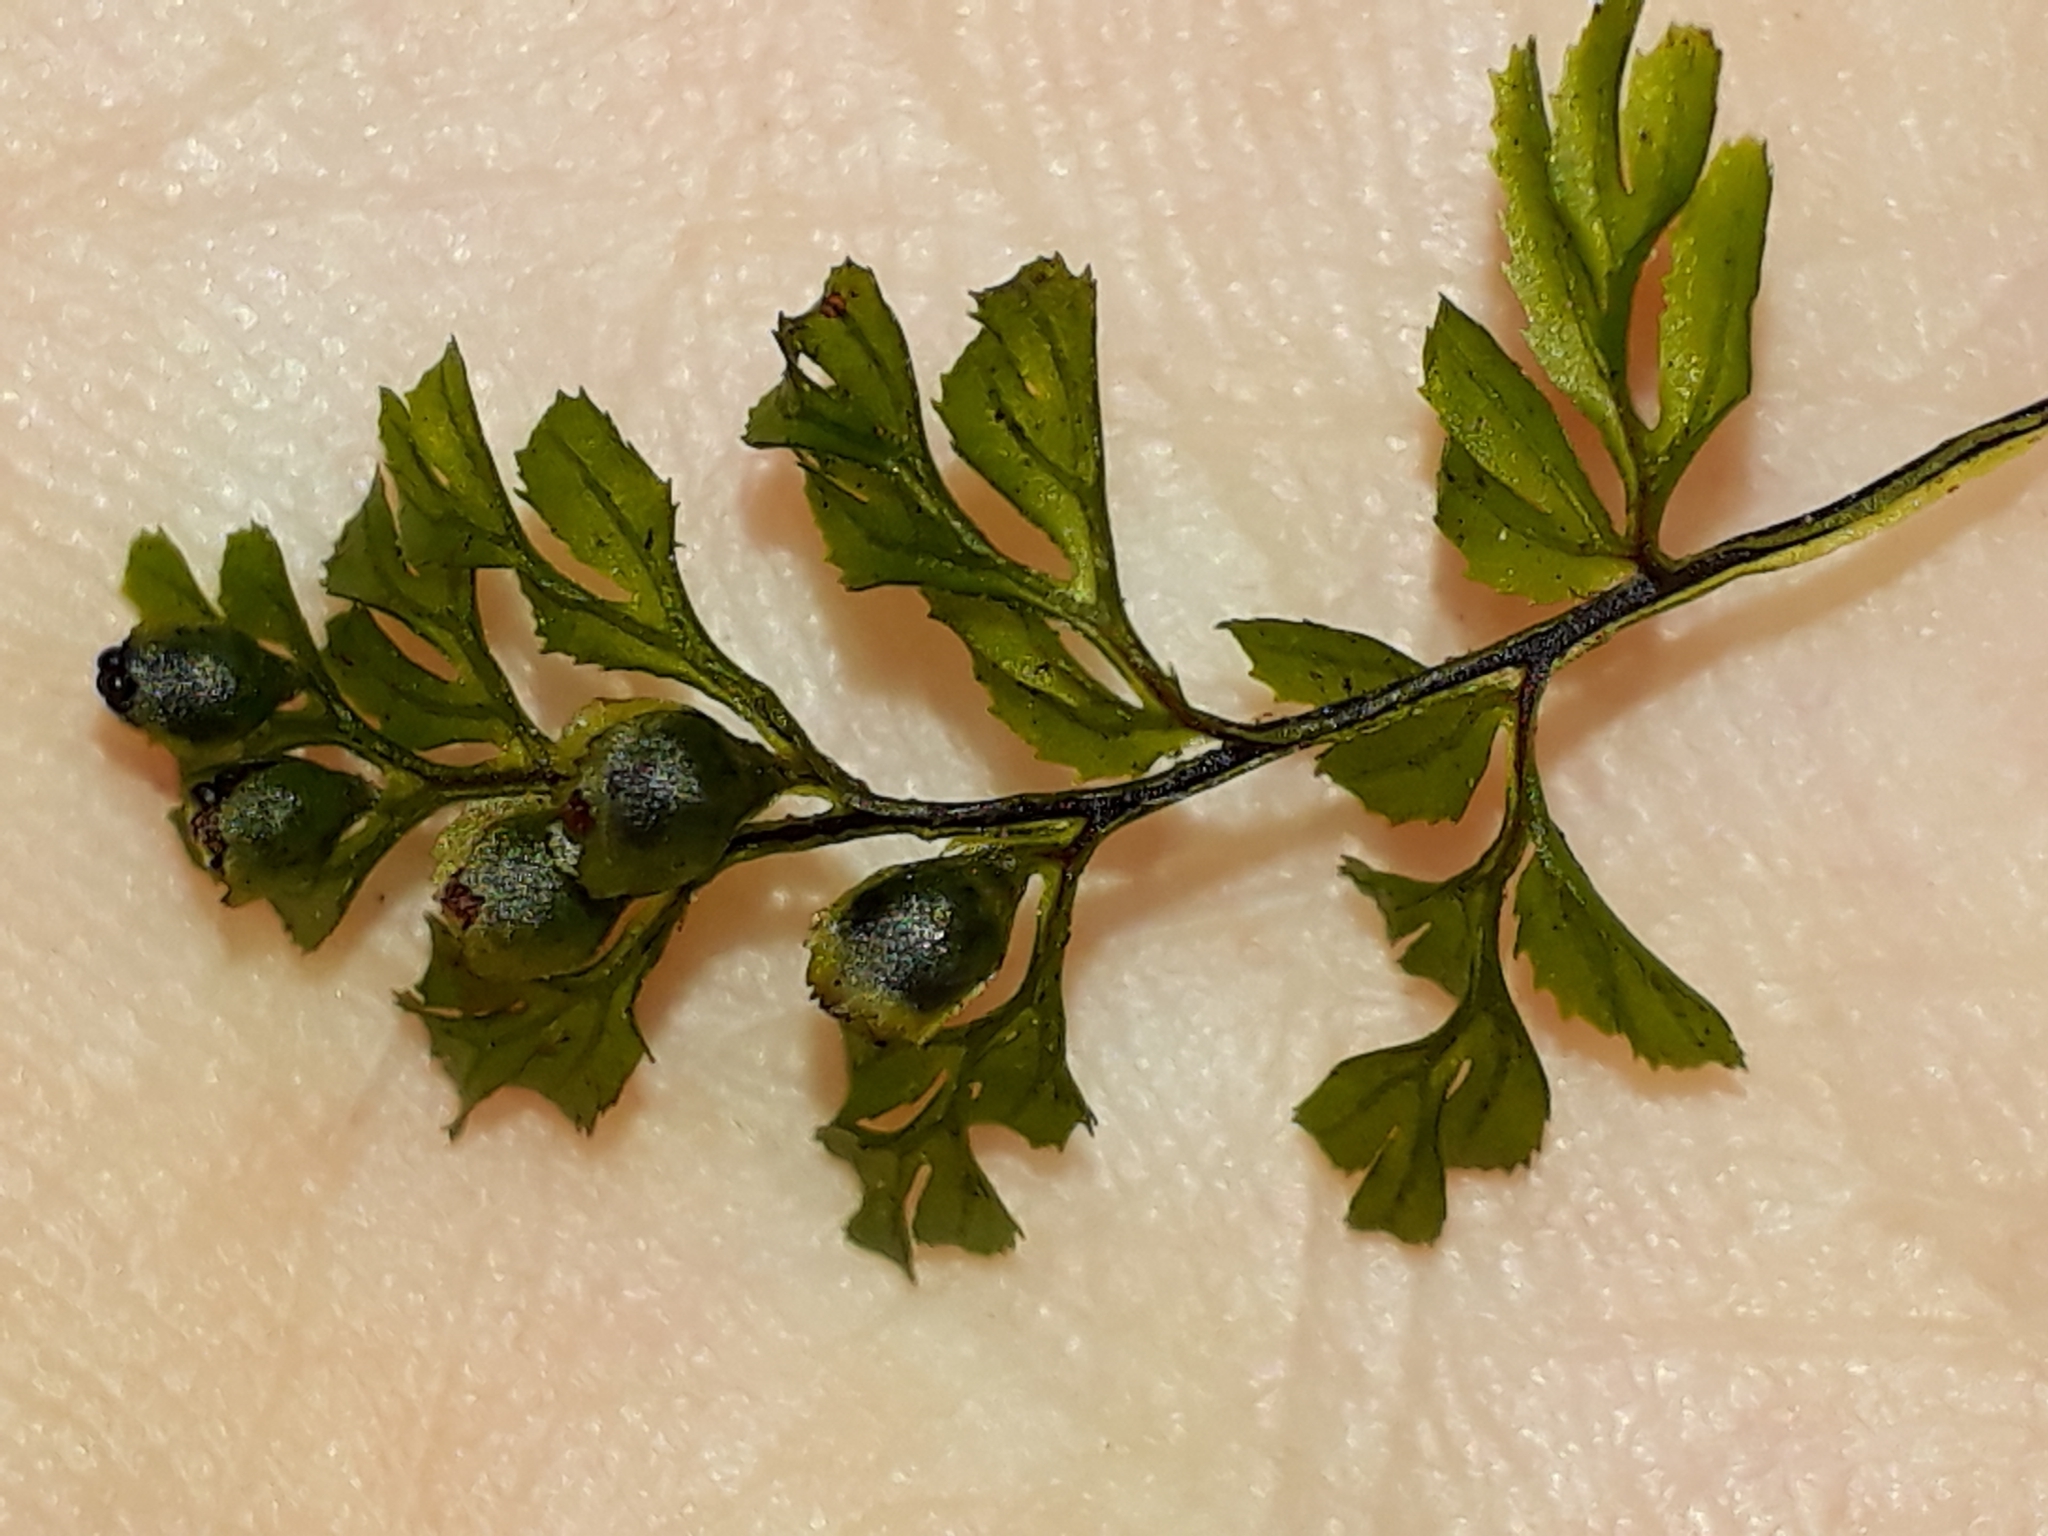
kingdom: Plantae
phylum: Tracheophyta
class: Polypodiopsida
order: Hymenophyllales
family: Hymenophyllaceae
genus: Hymenophyllum
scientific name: Hymenophyllum cupressiforme
